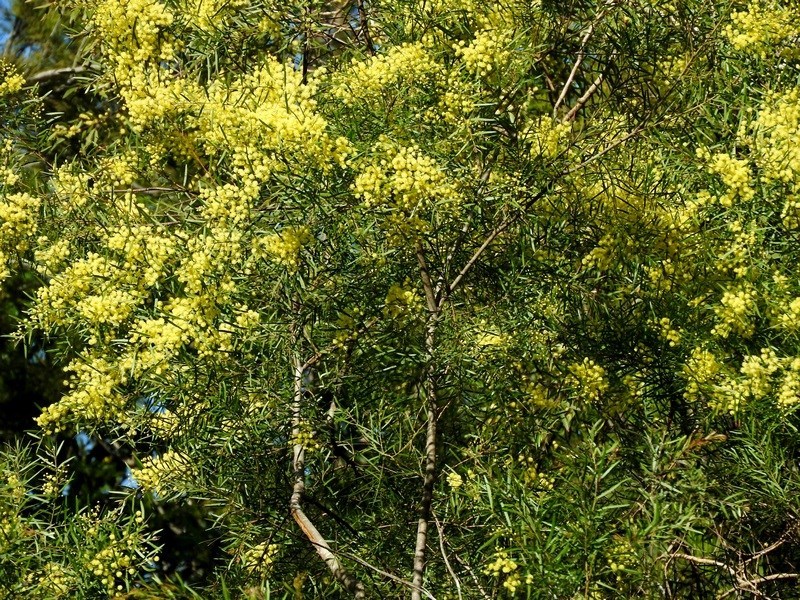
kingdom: Plantae
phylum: Tracheophyta
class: Magnoliopsida
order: Fabales
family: Fabaceae
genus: Acacia
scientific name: Acacia subporosa
